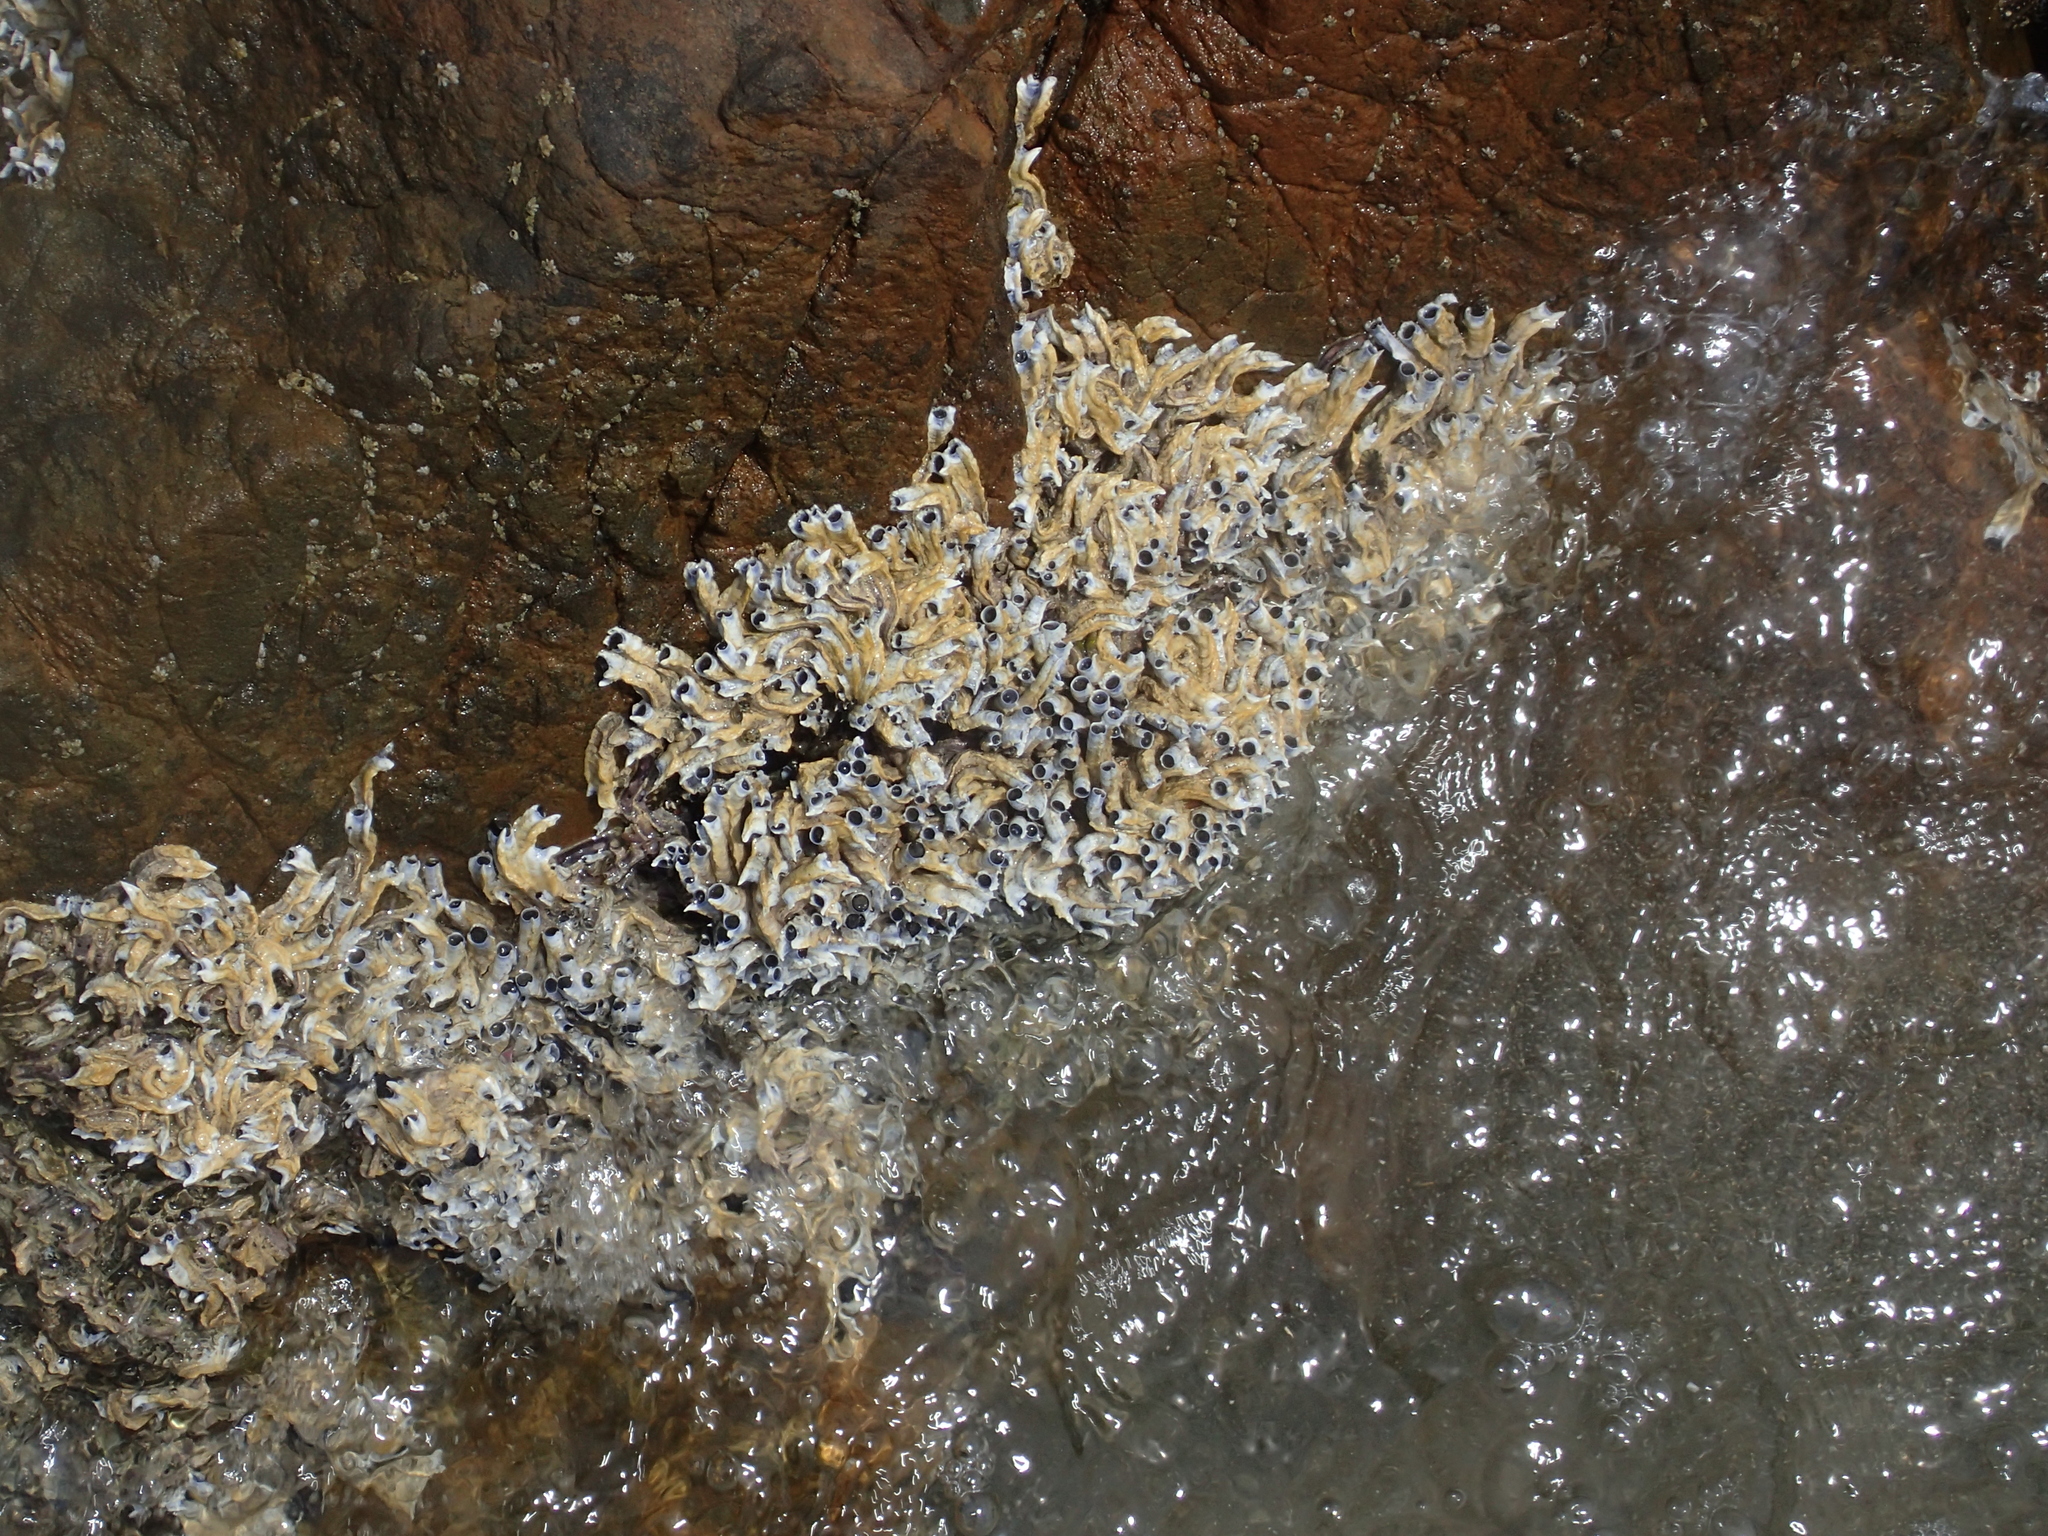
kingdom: Animalia
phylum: Annelida
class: Polychaeta
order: Sabellida
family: Serpulidae
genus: Spirobranchus
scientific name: Spirobranchus cariniferus
